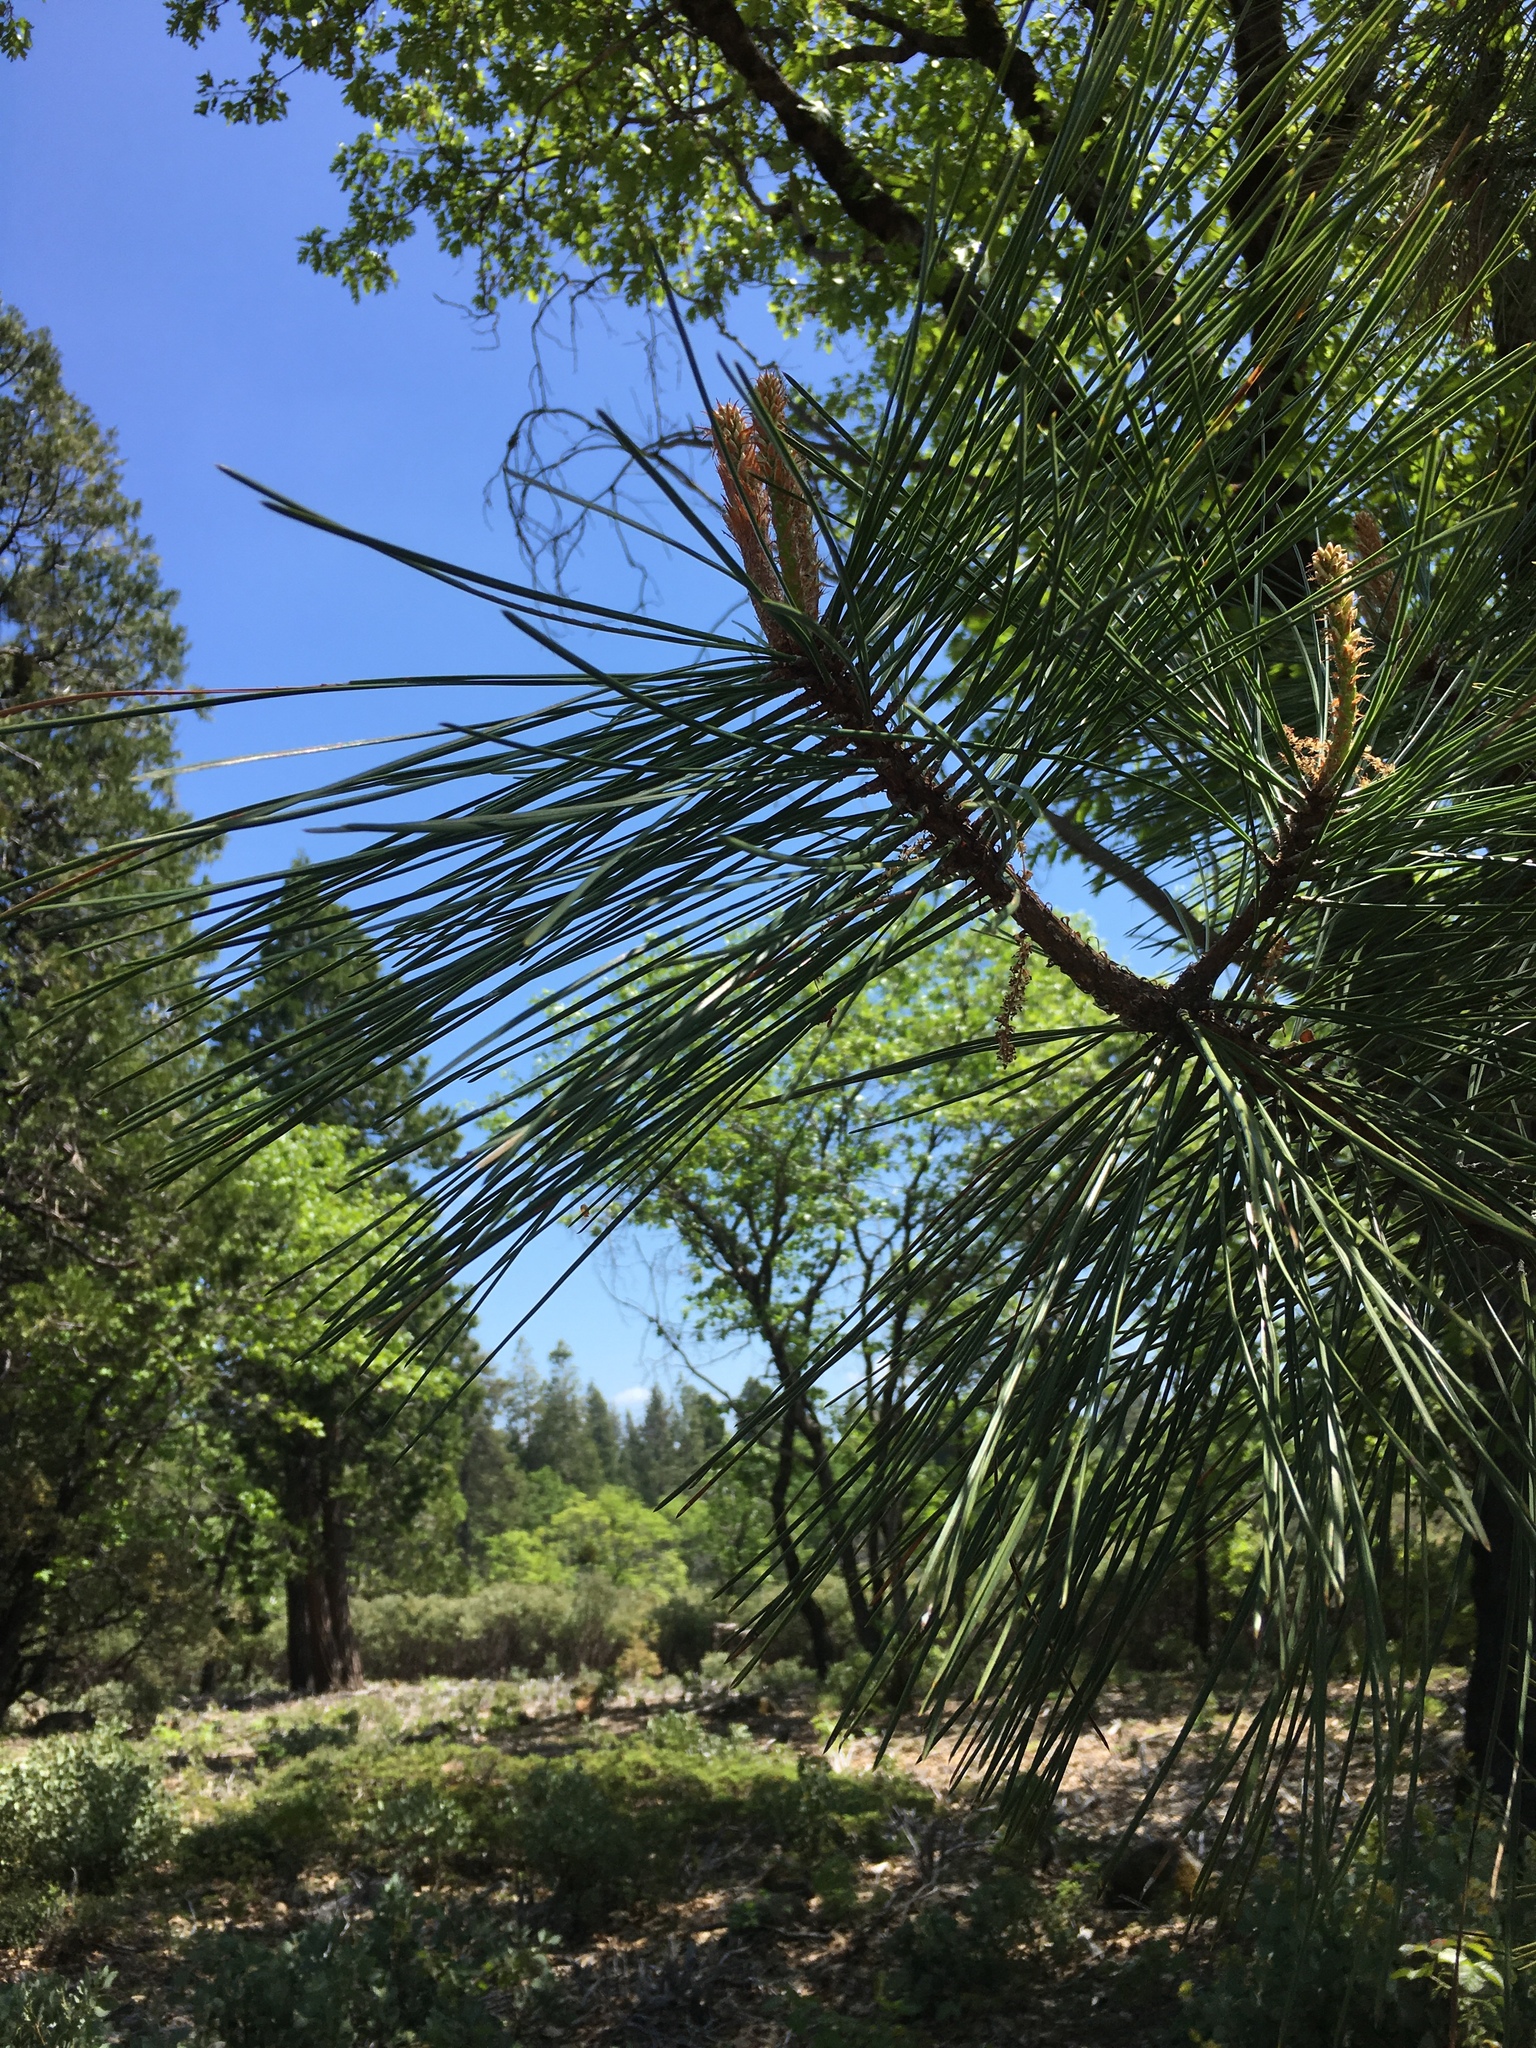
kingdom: Plantae
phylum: Tracheophyta
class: Pinopsida
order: Pinales
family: Pinaceae
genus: Pinus
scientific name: Pinus ponderosa
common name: Western yellow-pine
